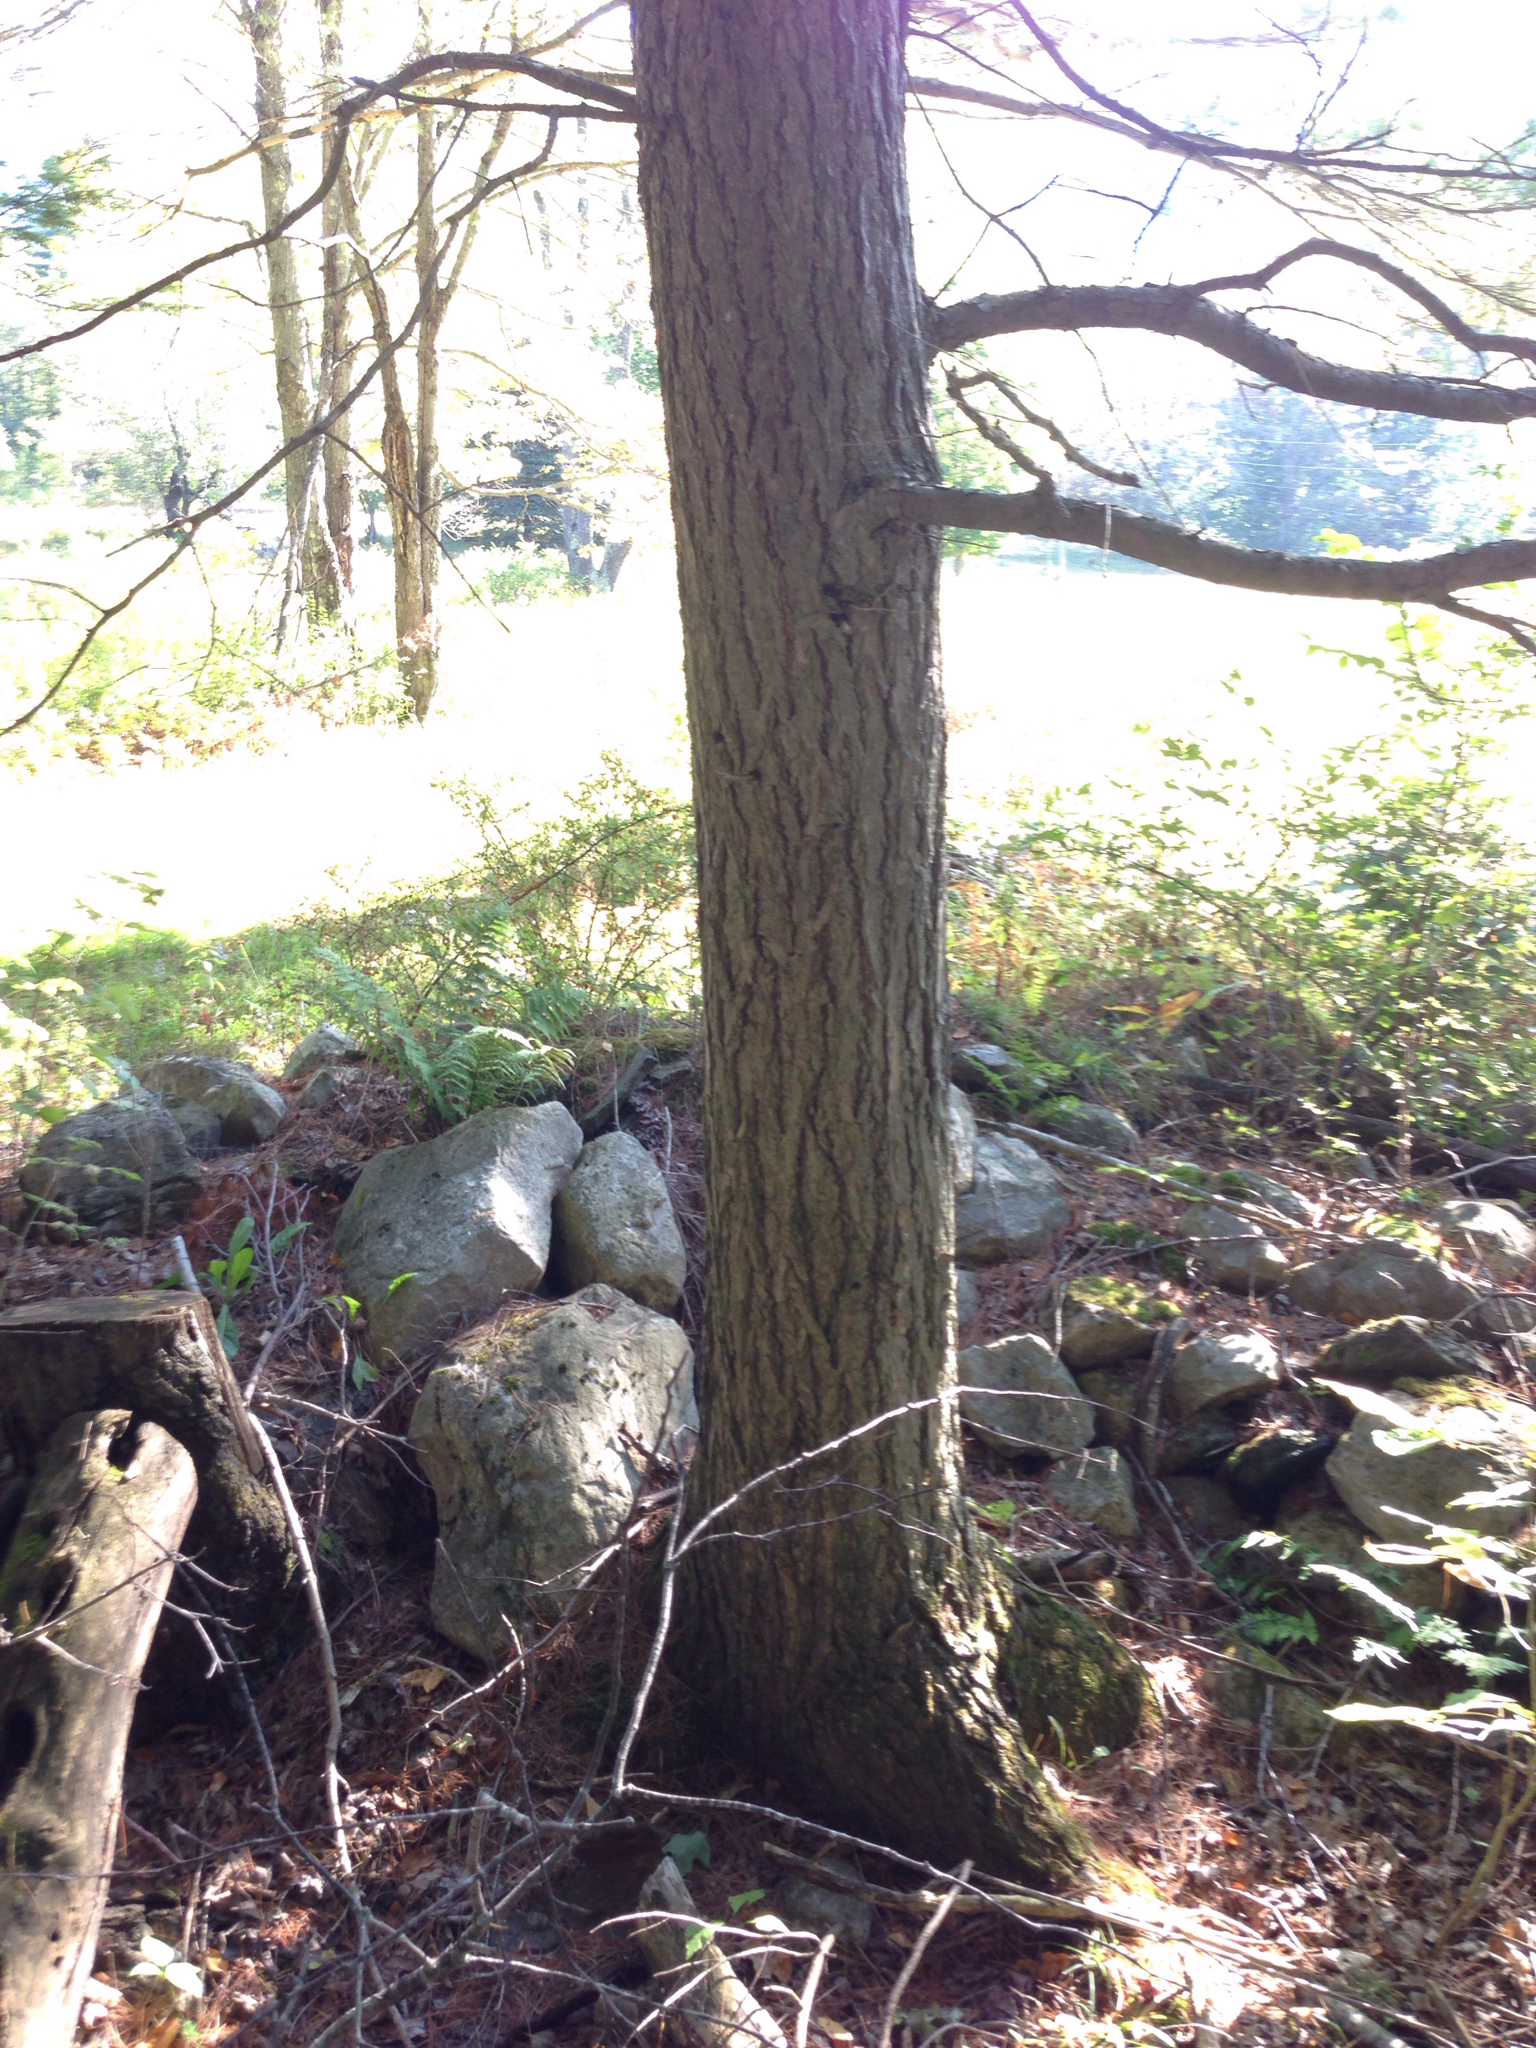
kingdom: Plantae
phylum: Tracheophyta
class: Pinopsida
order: Pinales
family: Pinaceae
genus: Tsuga
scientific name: Tsuga canadensis
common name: Eastern hemlock
